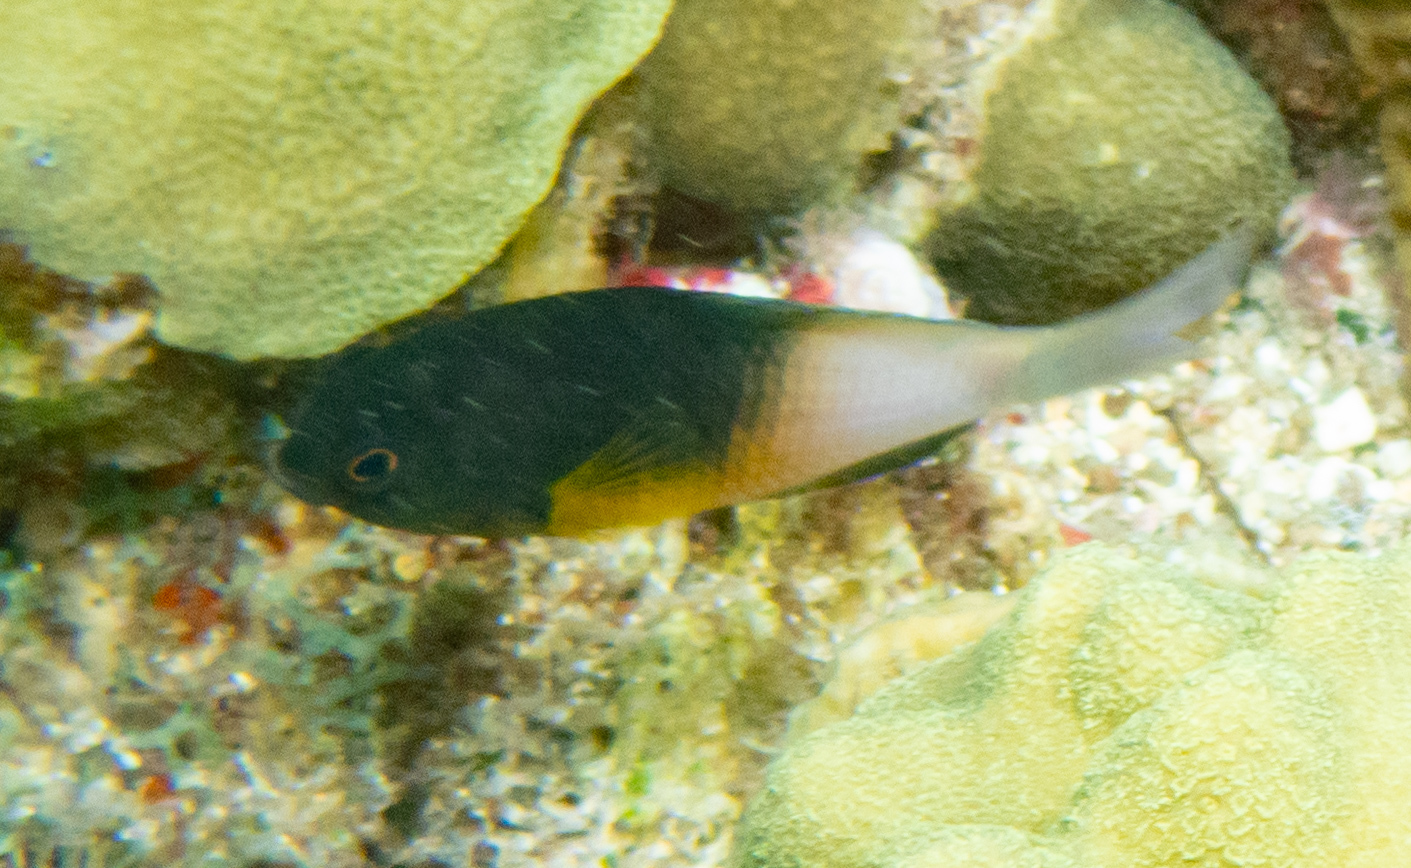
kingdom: Animalia
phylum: Chordata
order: Perciformes
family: Pomacentridae
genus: Stegastes
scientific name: Stegastes partitus
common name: Bicolor damselfish
